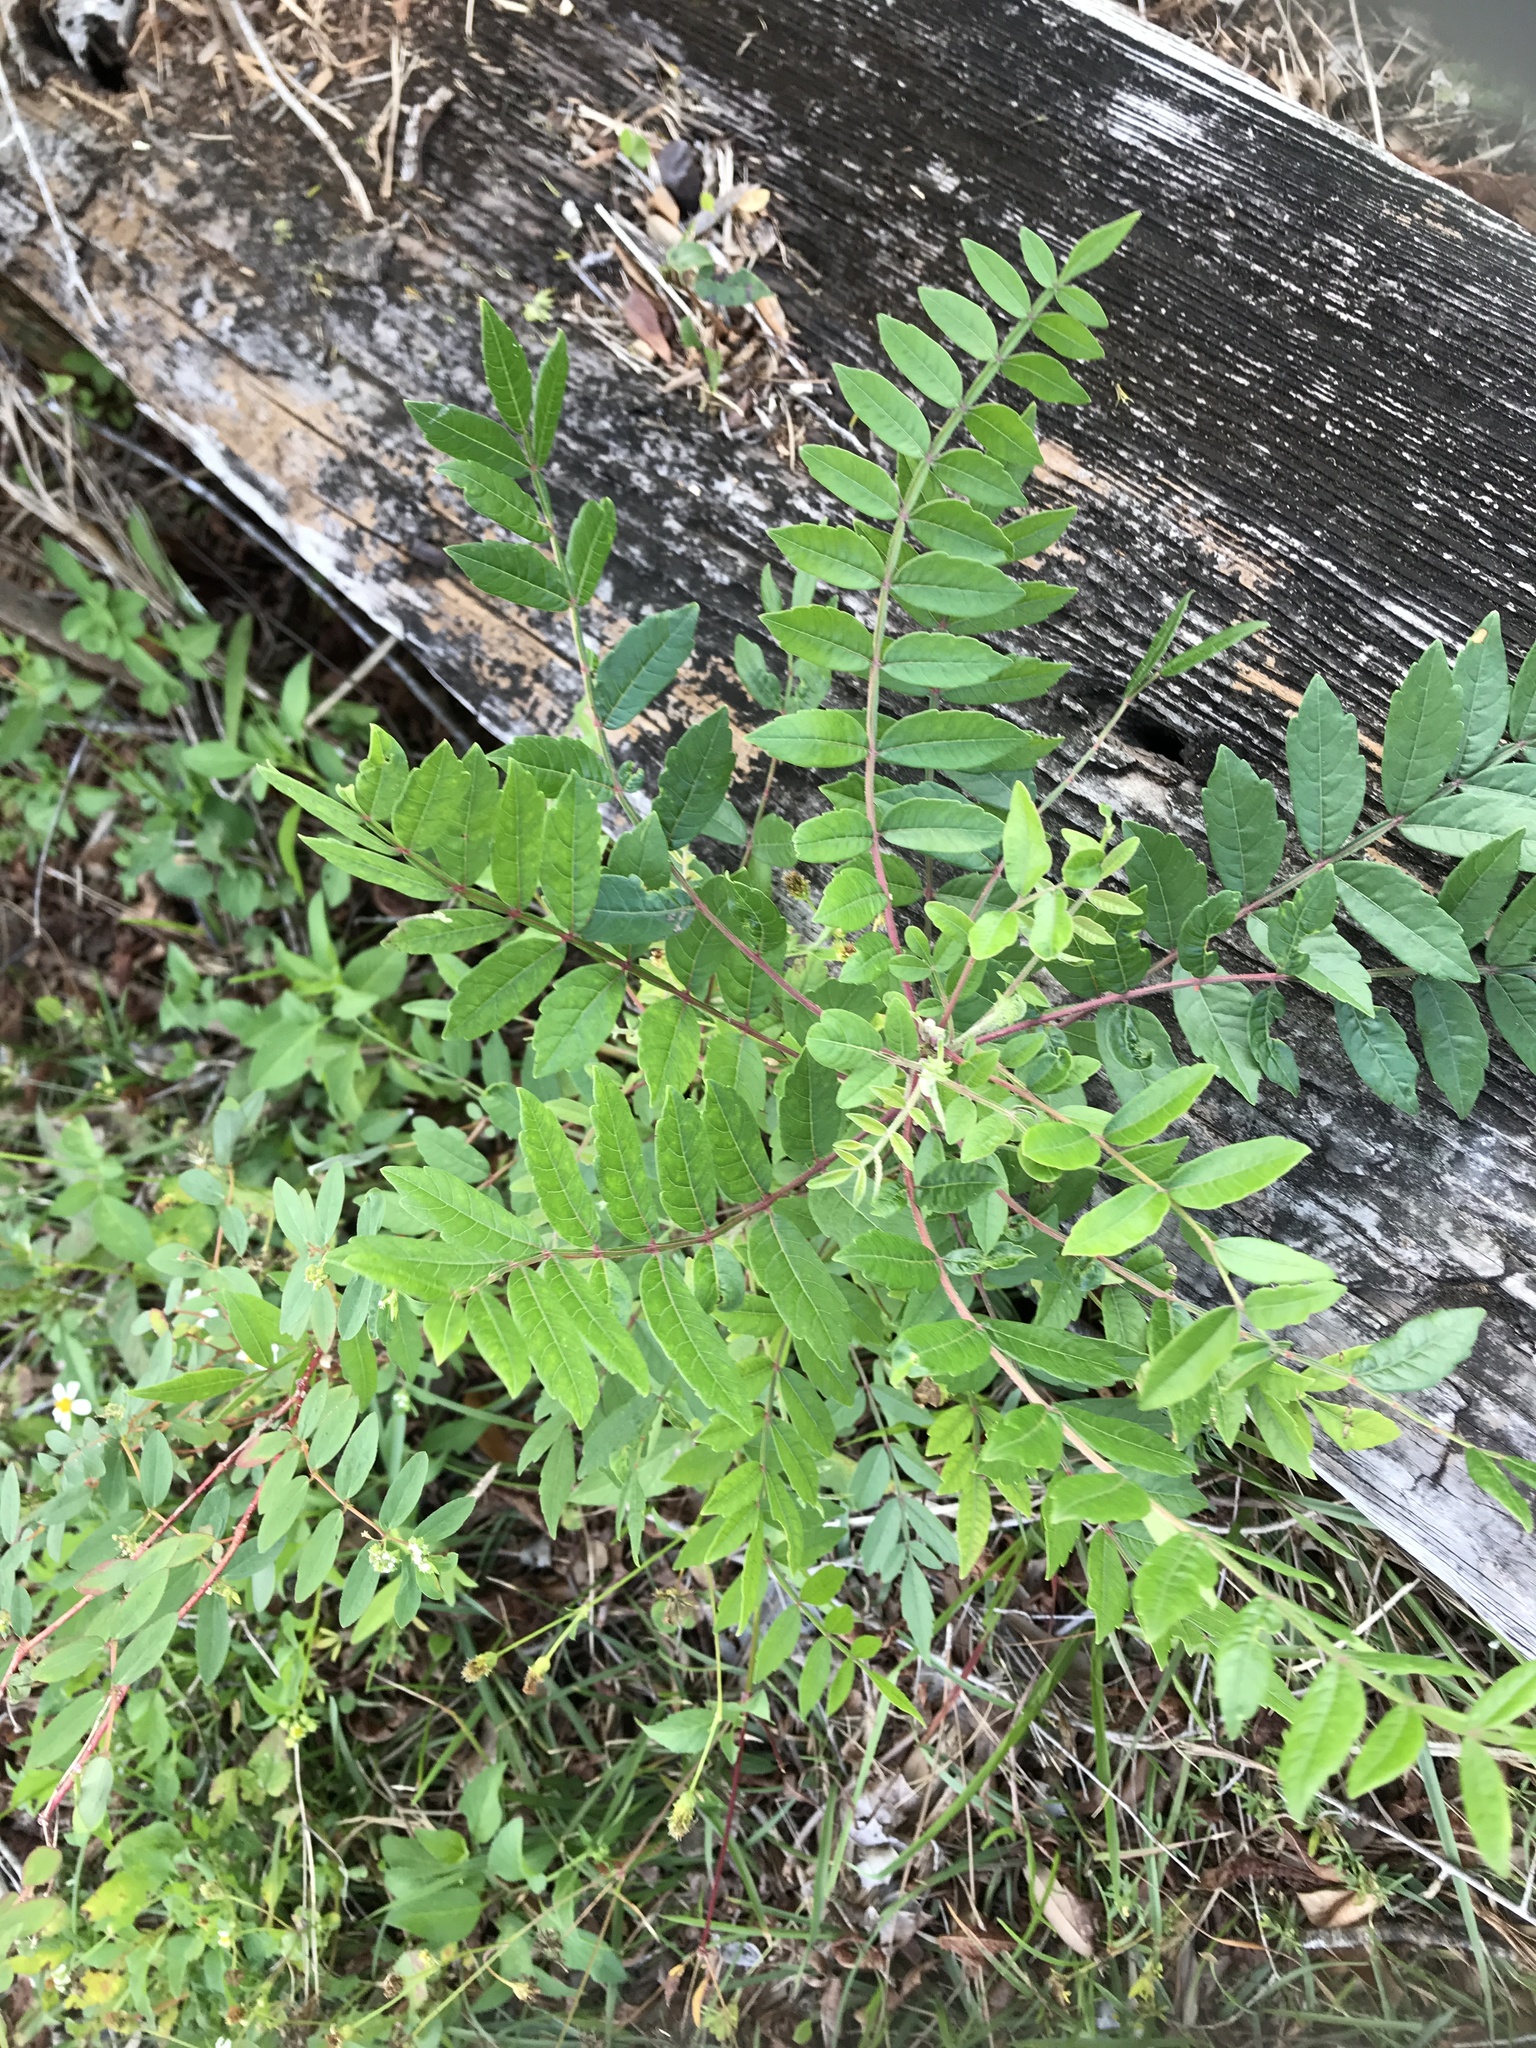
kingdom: Plantae
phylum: Tracheophyta
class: Magnoliopsida
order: Sapindales
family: Anacardiaceae
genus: Rhus
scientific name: Rhus copallina
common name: Shining sumac
